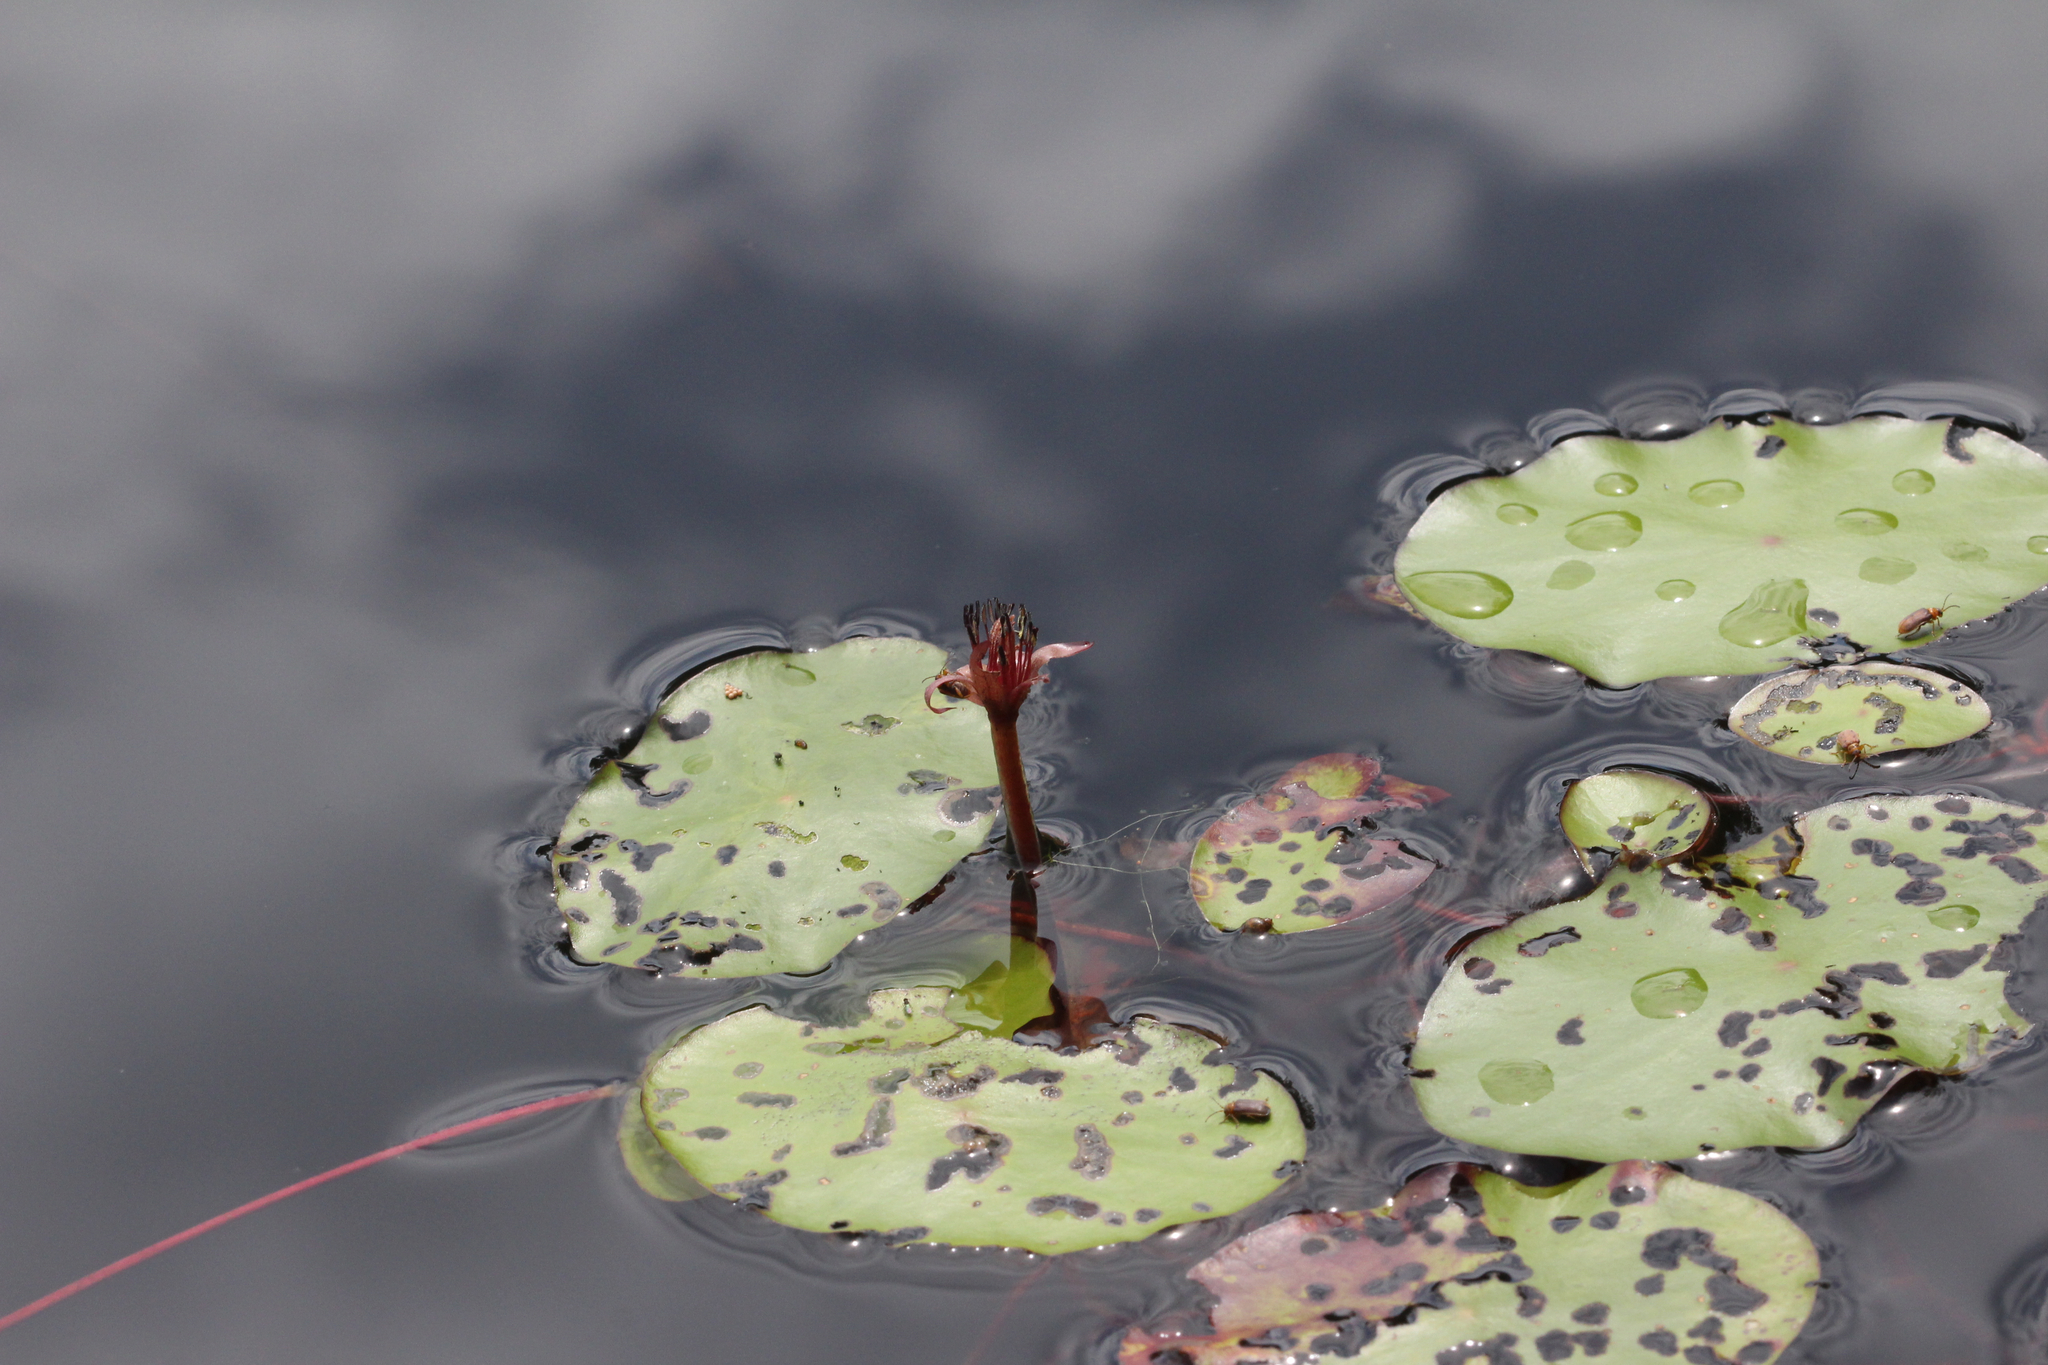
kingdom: Plantae
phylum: Tracheophyta
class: Magnoliopsida
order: Nymphaeales
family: Cabombaceae
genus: Brasenia
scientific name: Brasenia schreberi
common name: Water-shield
